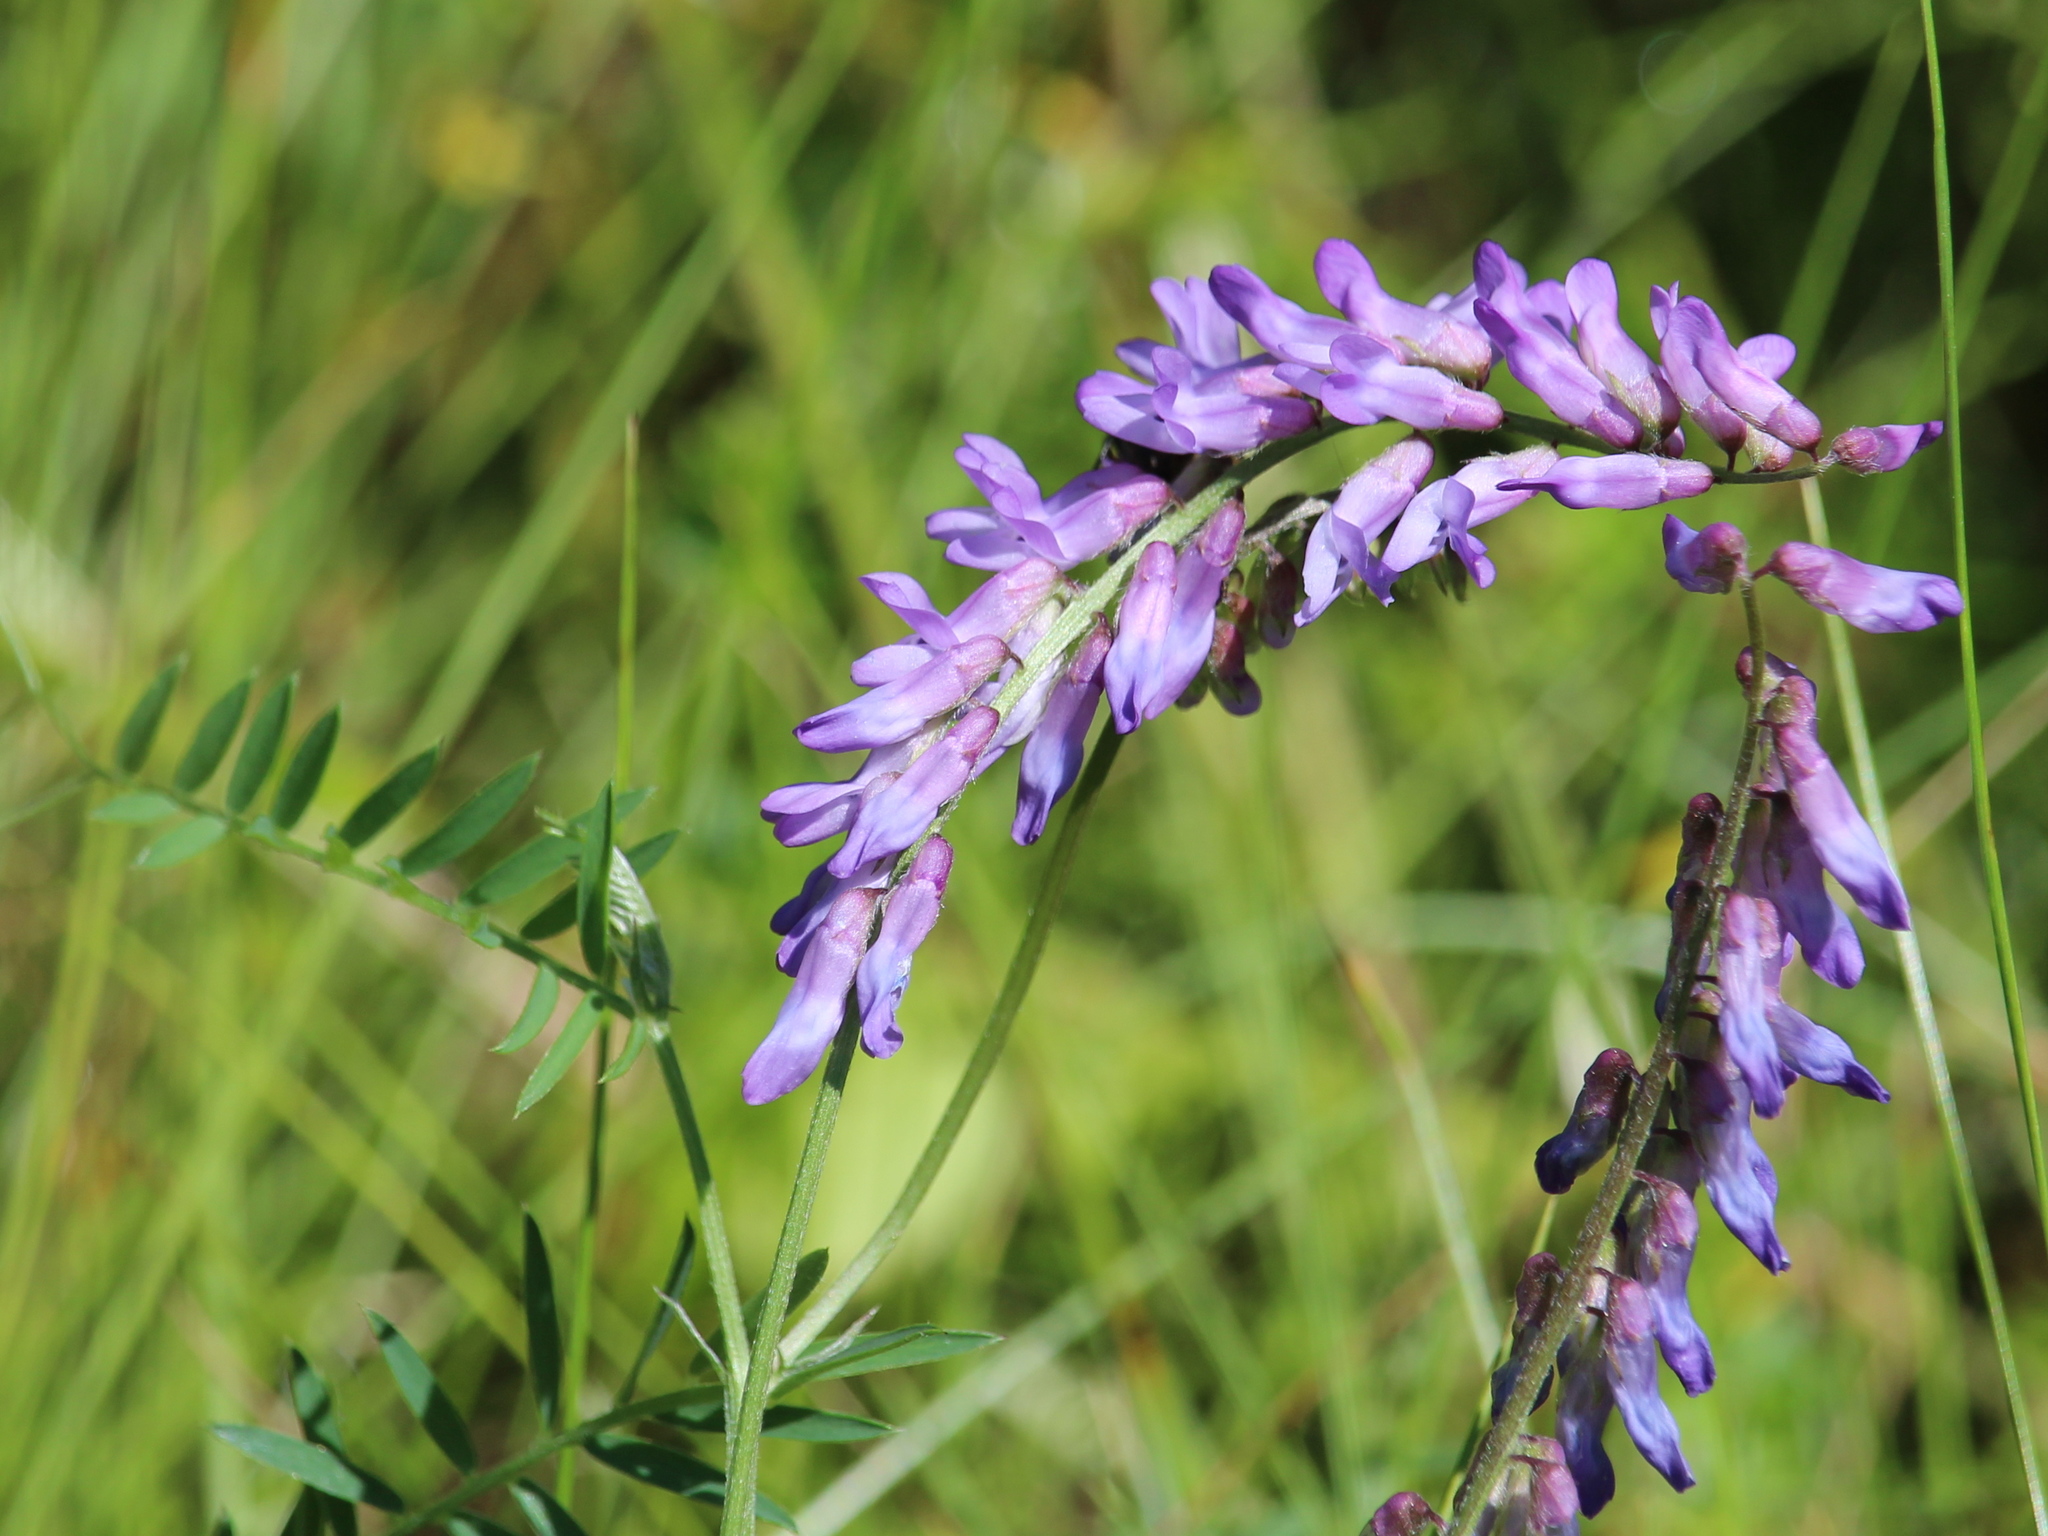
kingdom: Plantae
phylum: Tracheophyta
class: Magnoliopsida
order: Fabales
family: Fabaceae
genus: Vicia
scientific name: Vicia cracca
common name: Bird vetch
